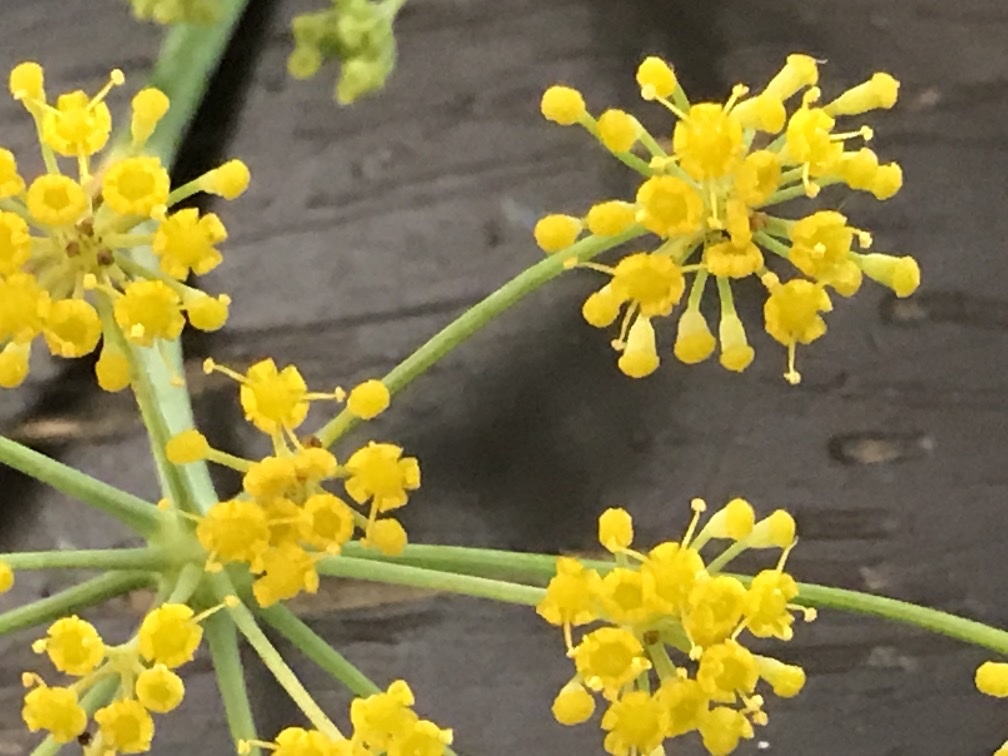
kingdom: Plantae
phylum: Tracheophyta
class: Magnoliopsida
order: Apiales
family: Apiaceae
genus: Foeniculum
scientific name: Foeniculum vulgare
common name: Fennel
